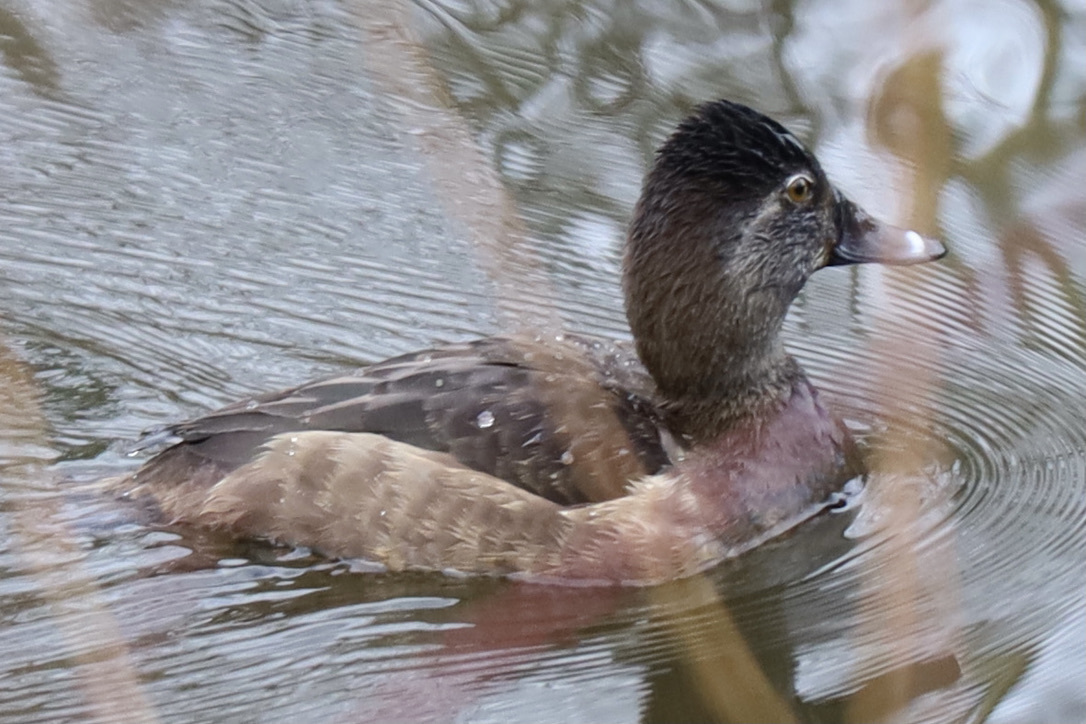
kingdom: Animalia
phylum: Chordata
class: Aves
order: Anseriformes
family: Anatidae
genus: Aythya
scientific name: Aythya collaris
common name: Ring-necked duck
